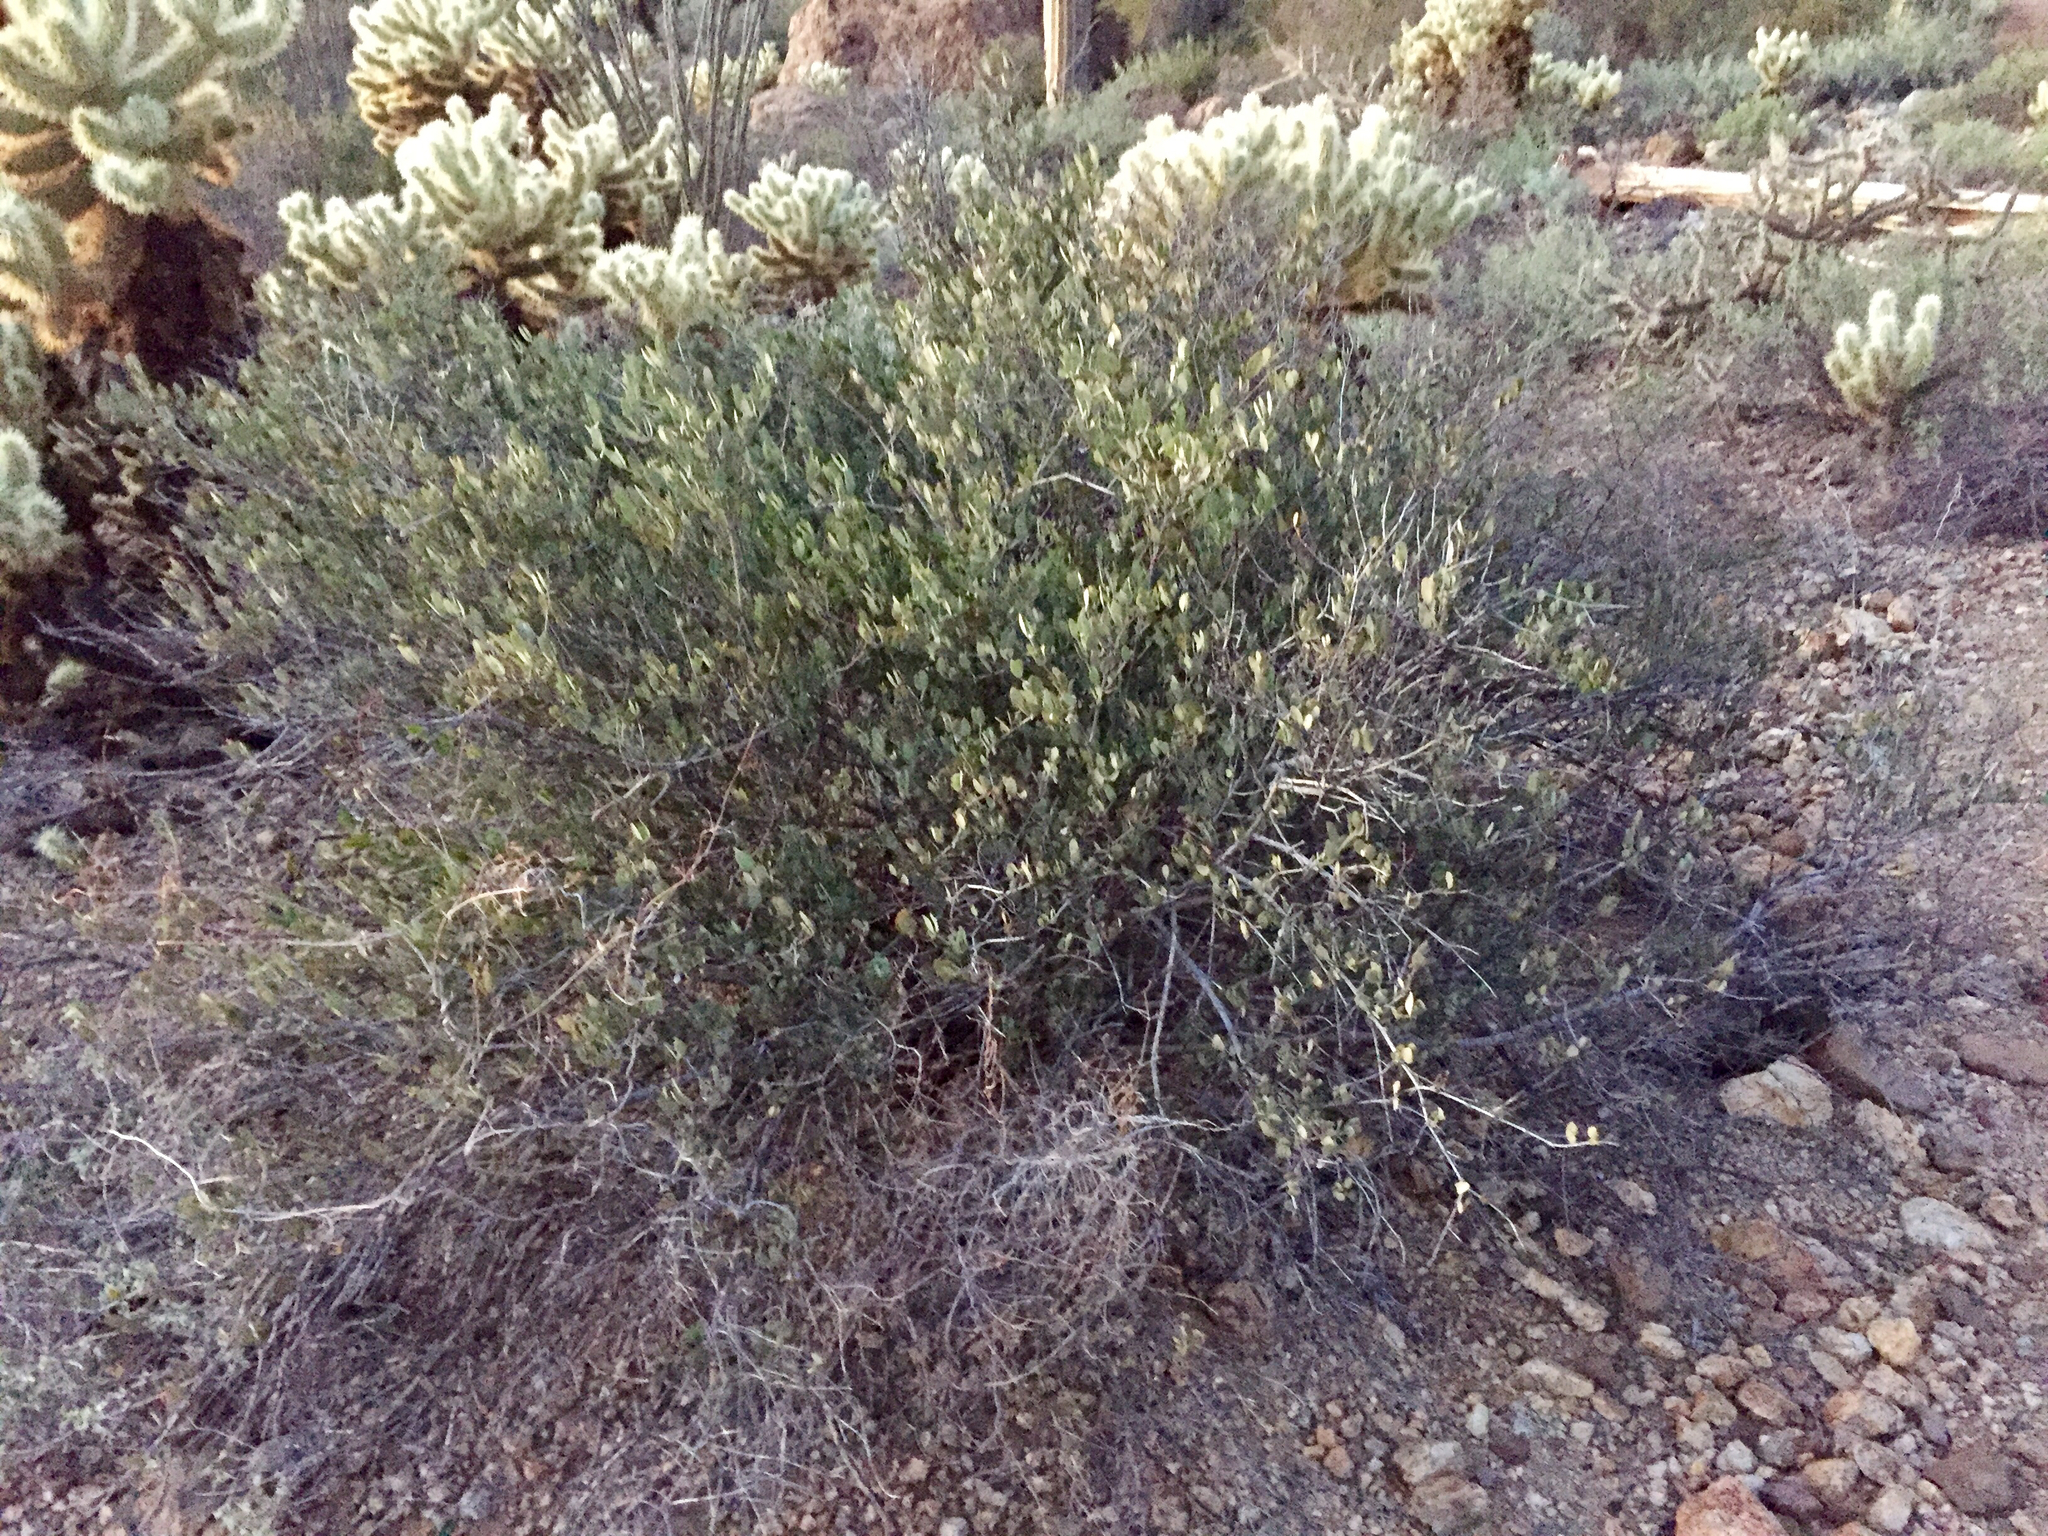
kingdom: Plantae
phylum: Tracheophyta
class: Magnoliopsida
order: Caryophyllales
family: Simmondsiaceae
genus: Simmondsia
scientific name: Simmondsia chinensis
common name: Jojoba
